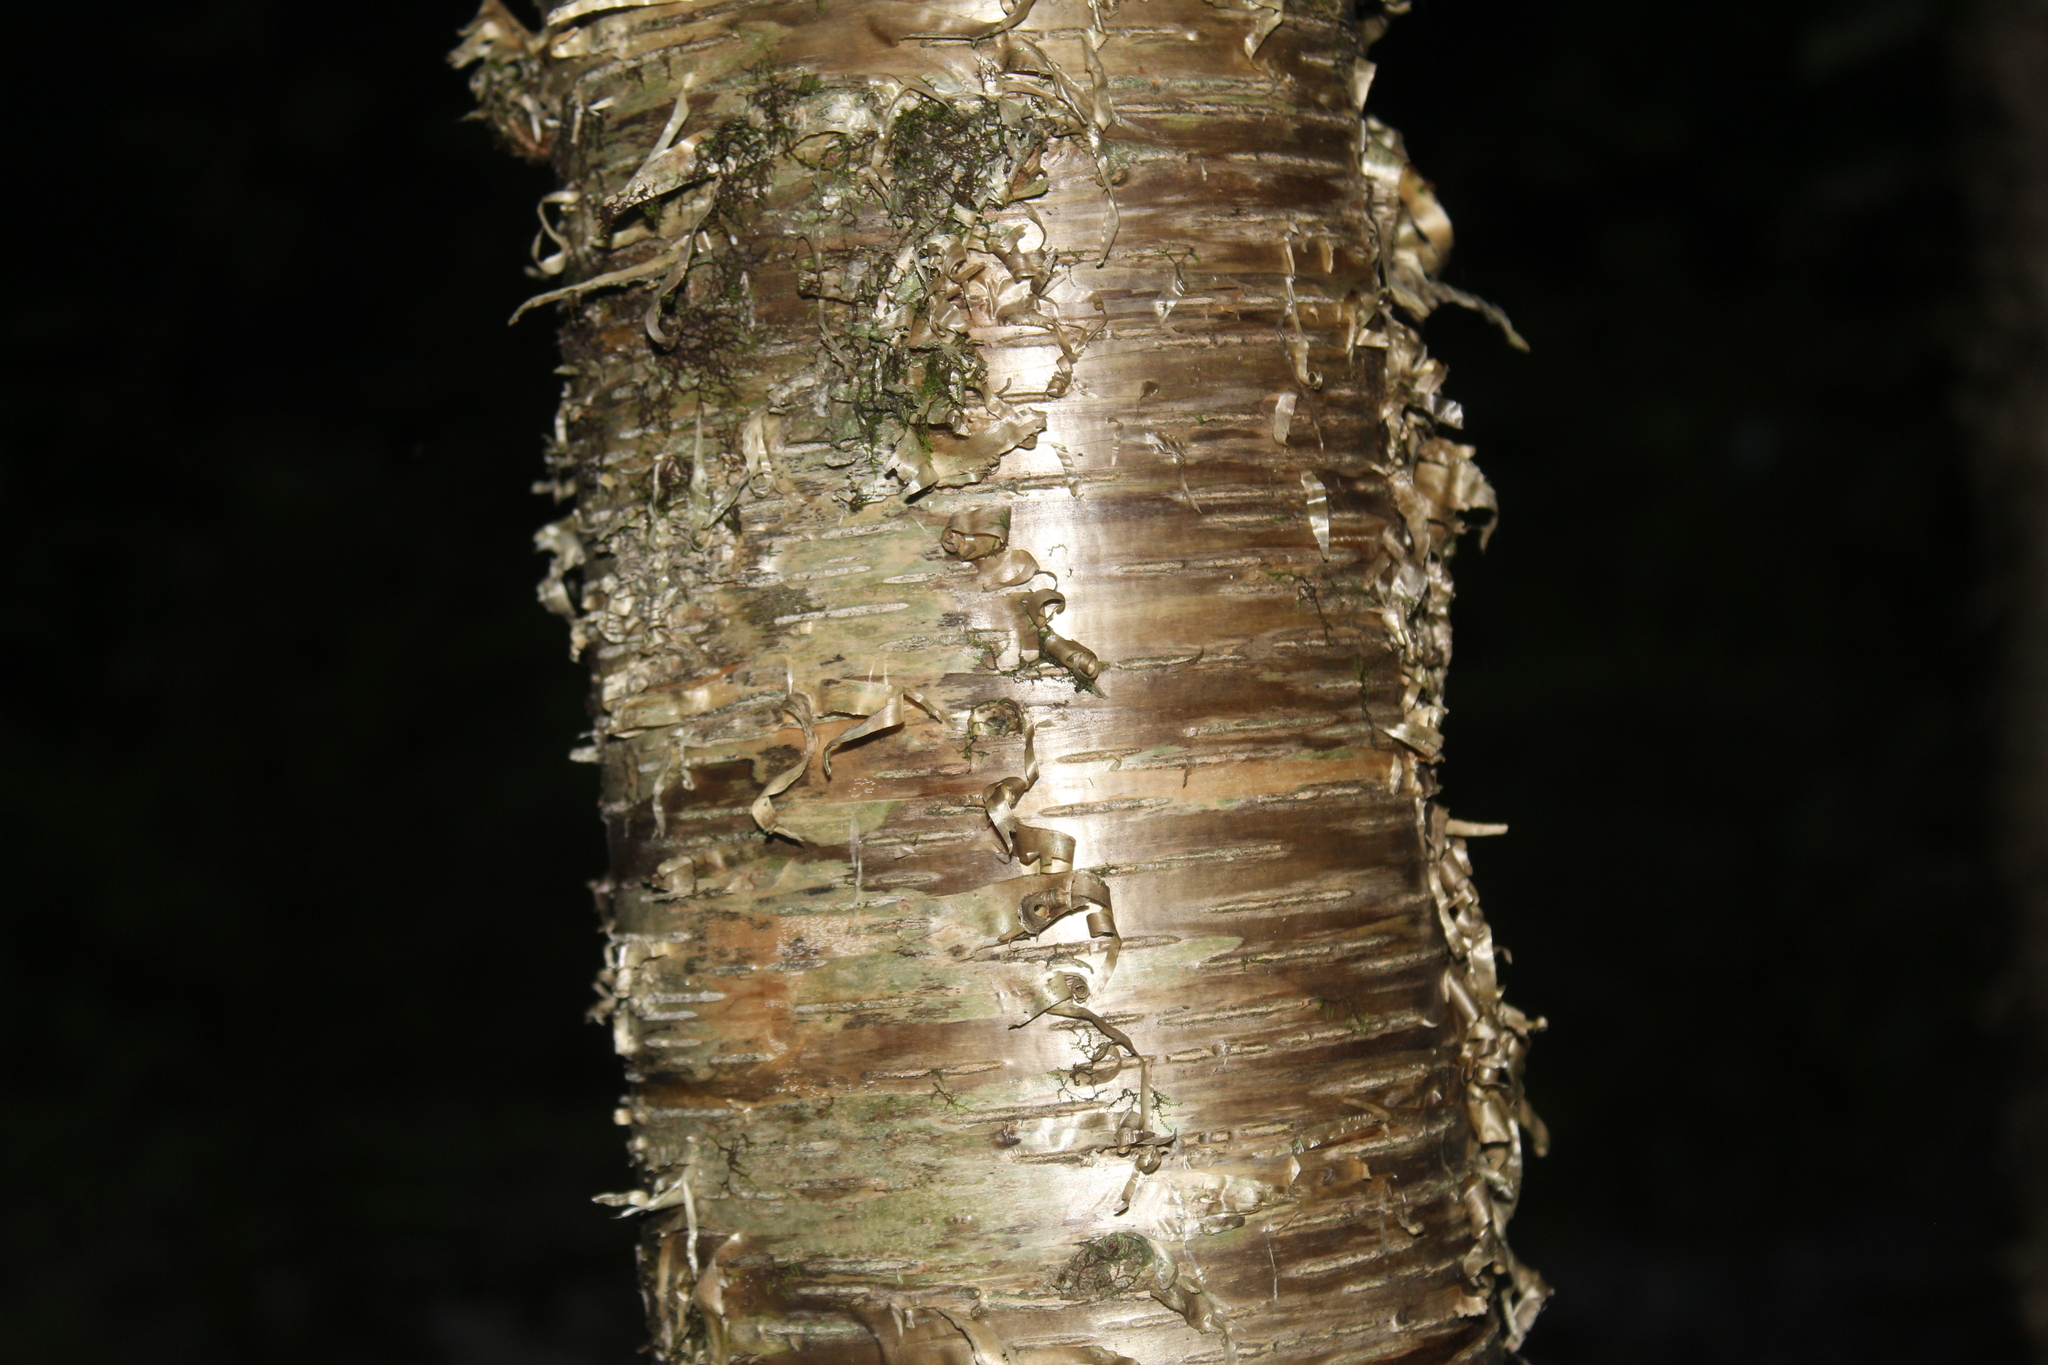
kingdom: Plantae
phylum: Tracheophyta
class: Magnoliopsida
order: Fagales
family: Betulaceae
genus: Betula
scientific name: Betula alleghaniensis
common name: Yellow birch
